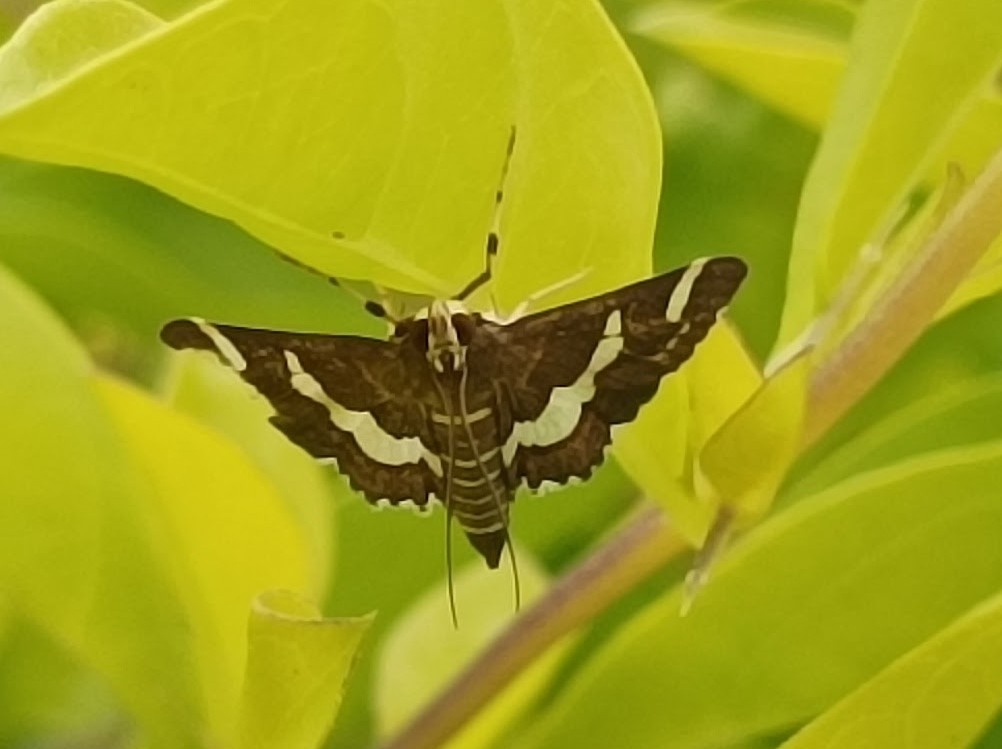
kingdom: Animalia
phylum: Arthropoda
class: Insecta
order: Lepidoptera
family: Crambidae
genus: Spoladea
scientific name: Spoladea recurvalis
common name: Beet webworm moth
